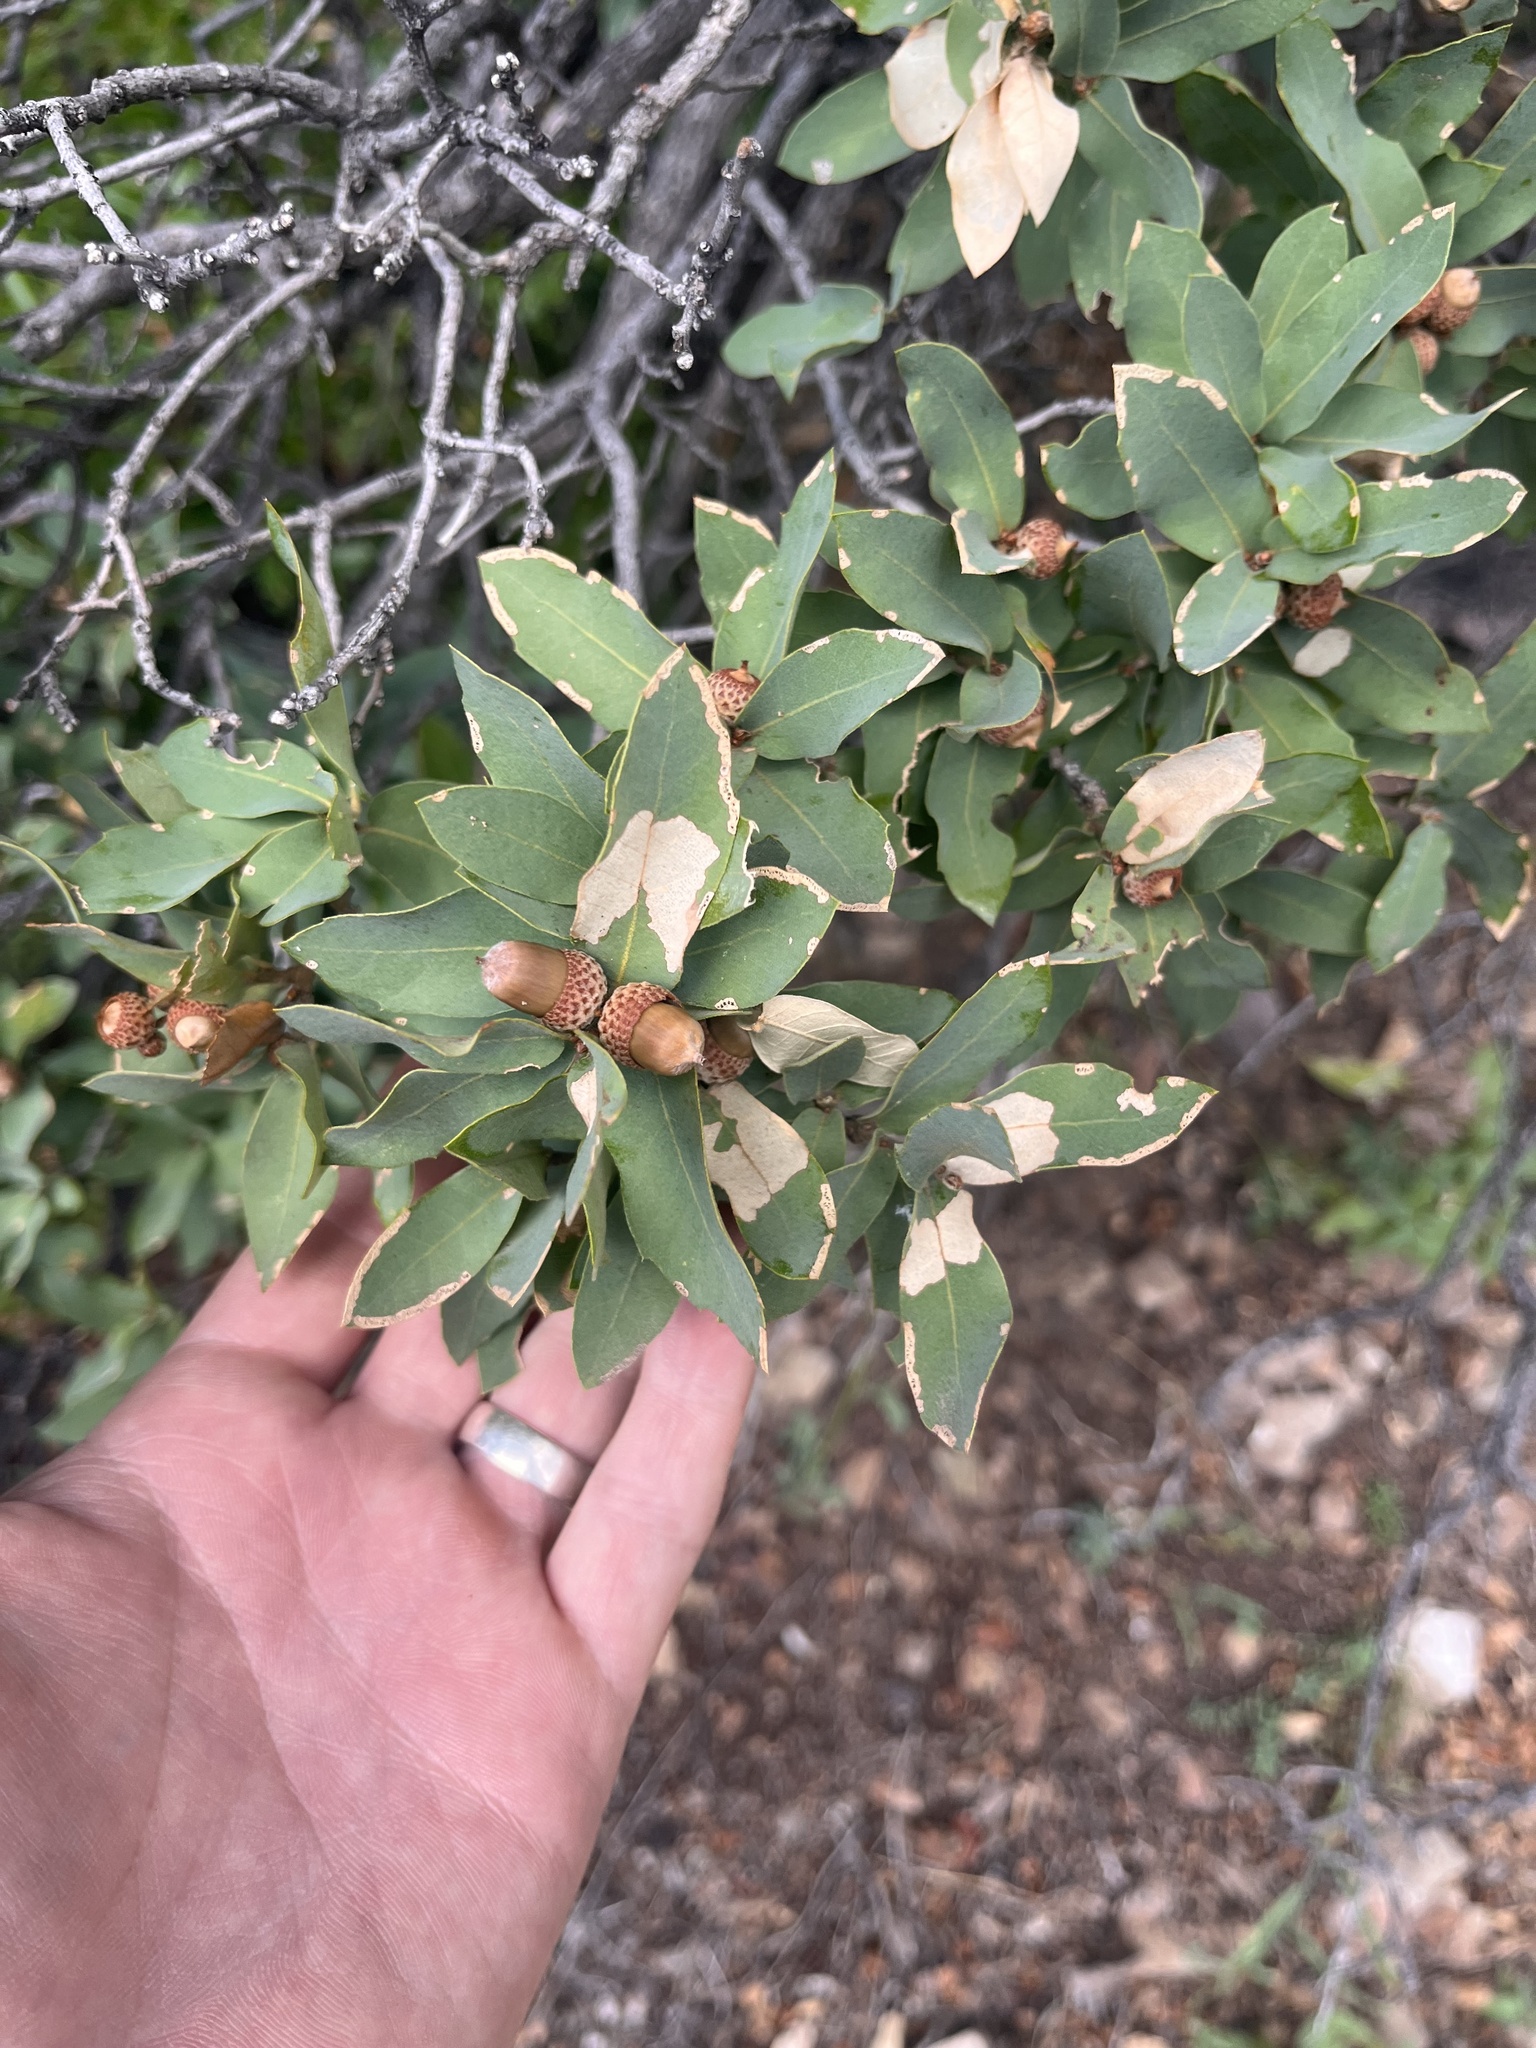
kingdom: Plantae
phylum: Tracheophyta
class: Magnoliopsida
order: Fagales
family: Fagaceae
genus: Quercus
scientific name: Quercus grisea
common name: Gray oak
